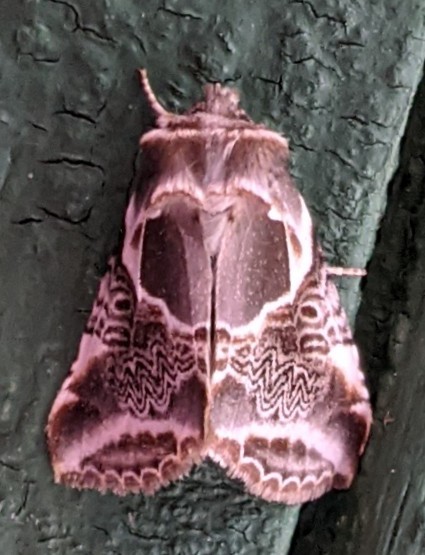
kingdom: Animalia
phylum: Arthropoda
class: Insecta
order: Lepidoptera
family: Drepanidae
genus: Habrosyne
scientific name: Habrosyne scripta
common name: Lettered habrosyne moth
